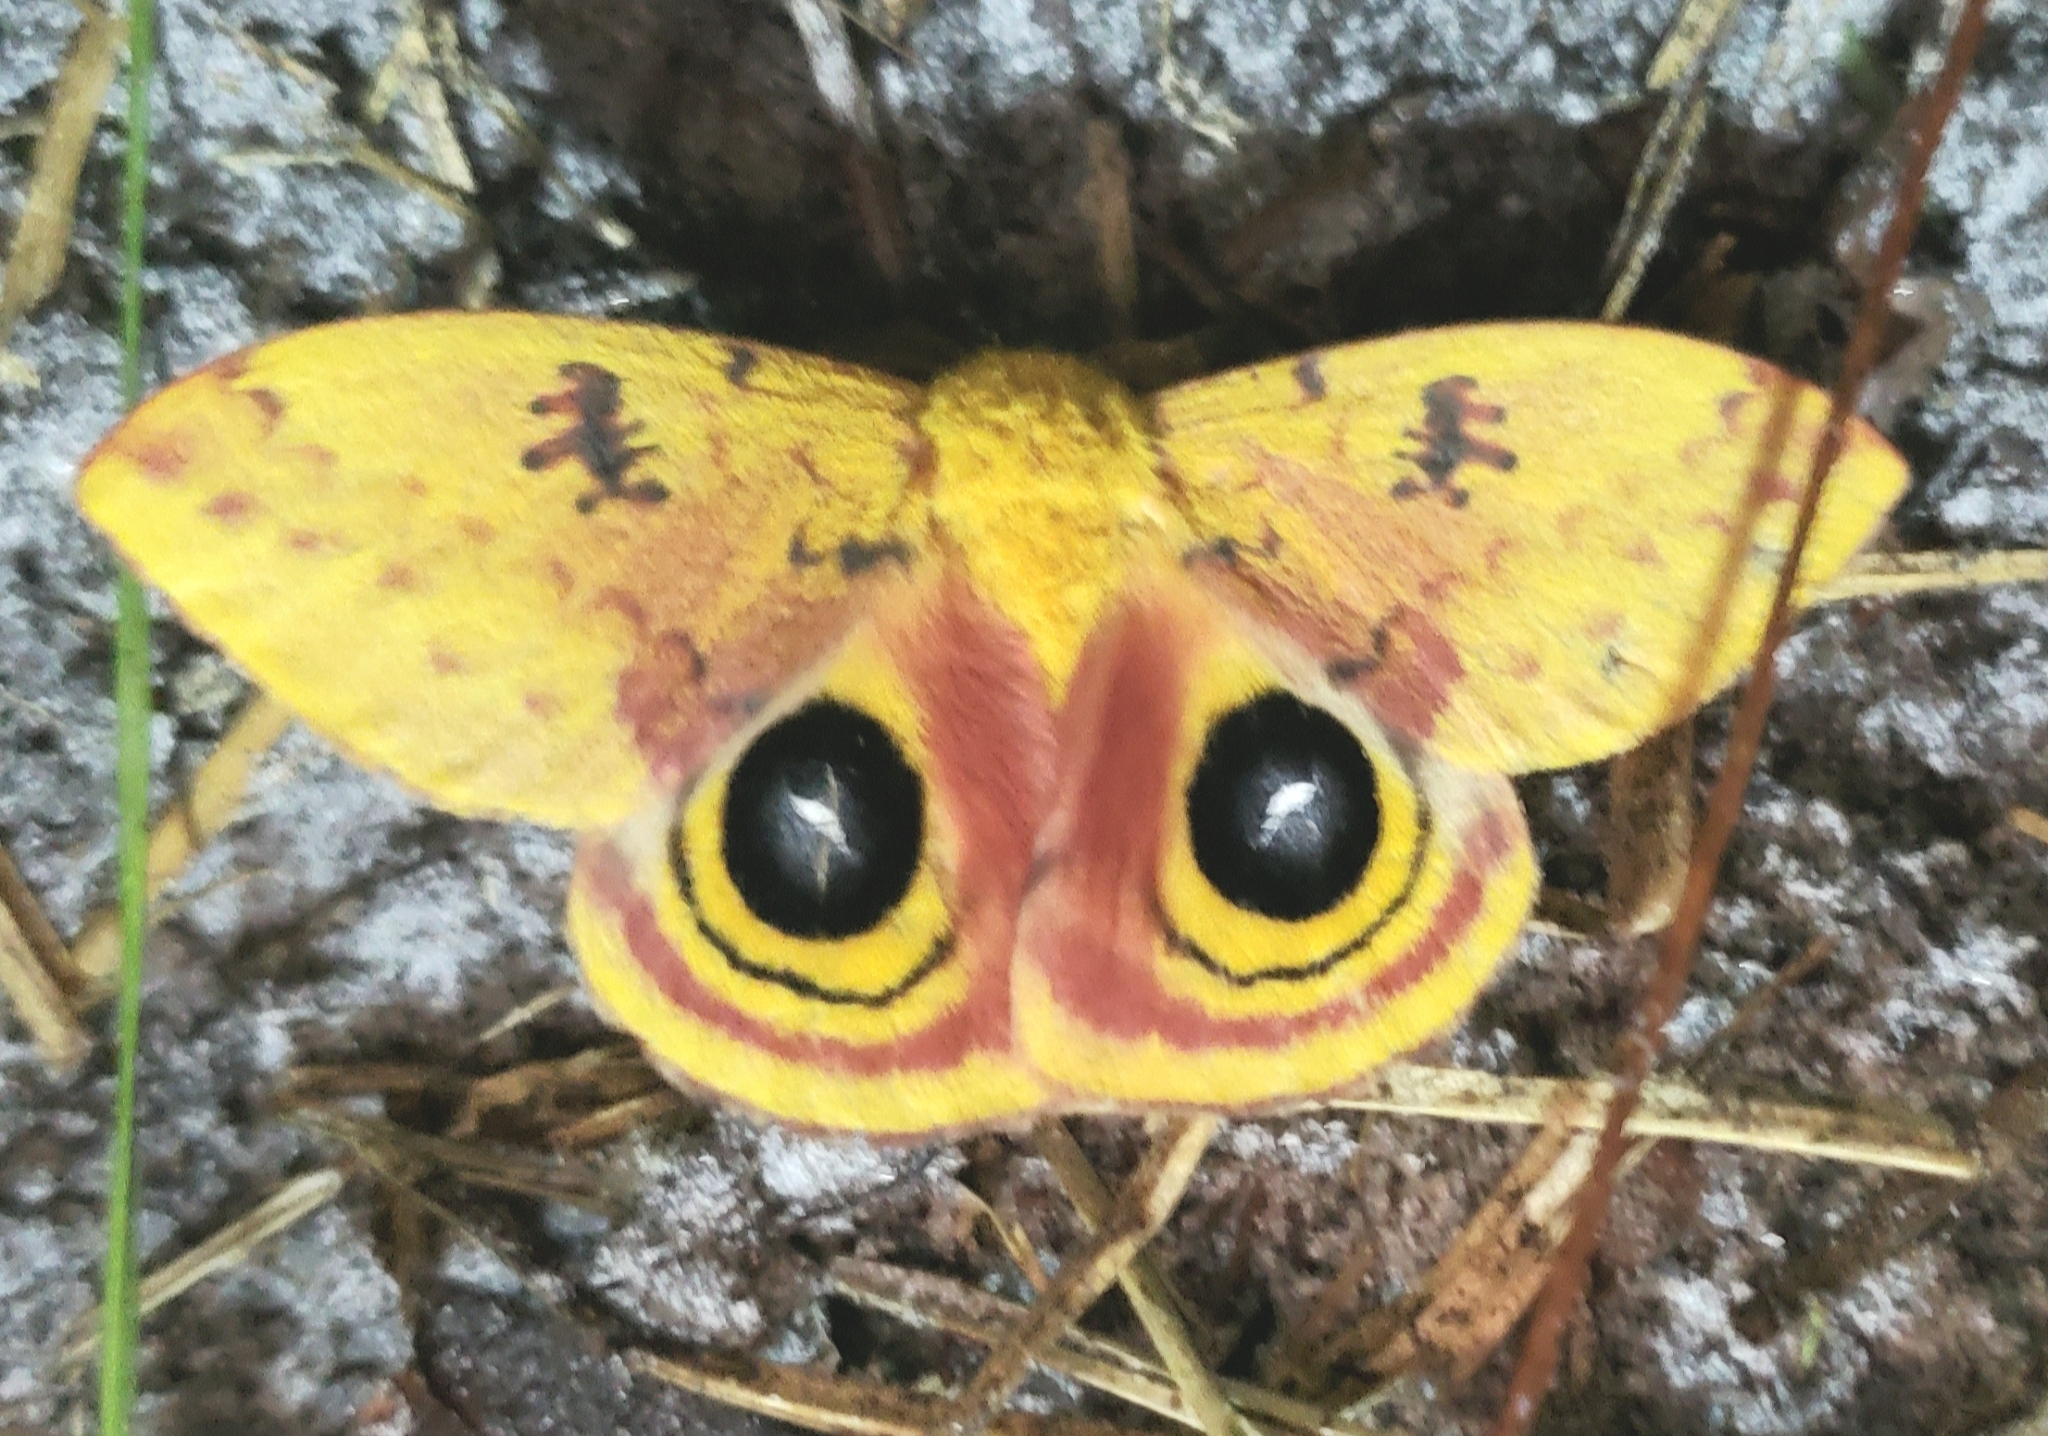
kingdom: Animalia
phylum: Arthropoda
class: Insecta
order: Lepidoptera
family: Saturniidae
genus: Automeris
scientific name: Automeris io
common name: Io moth
